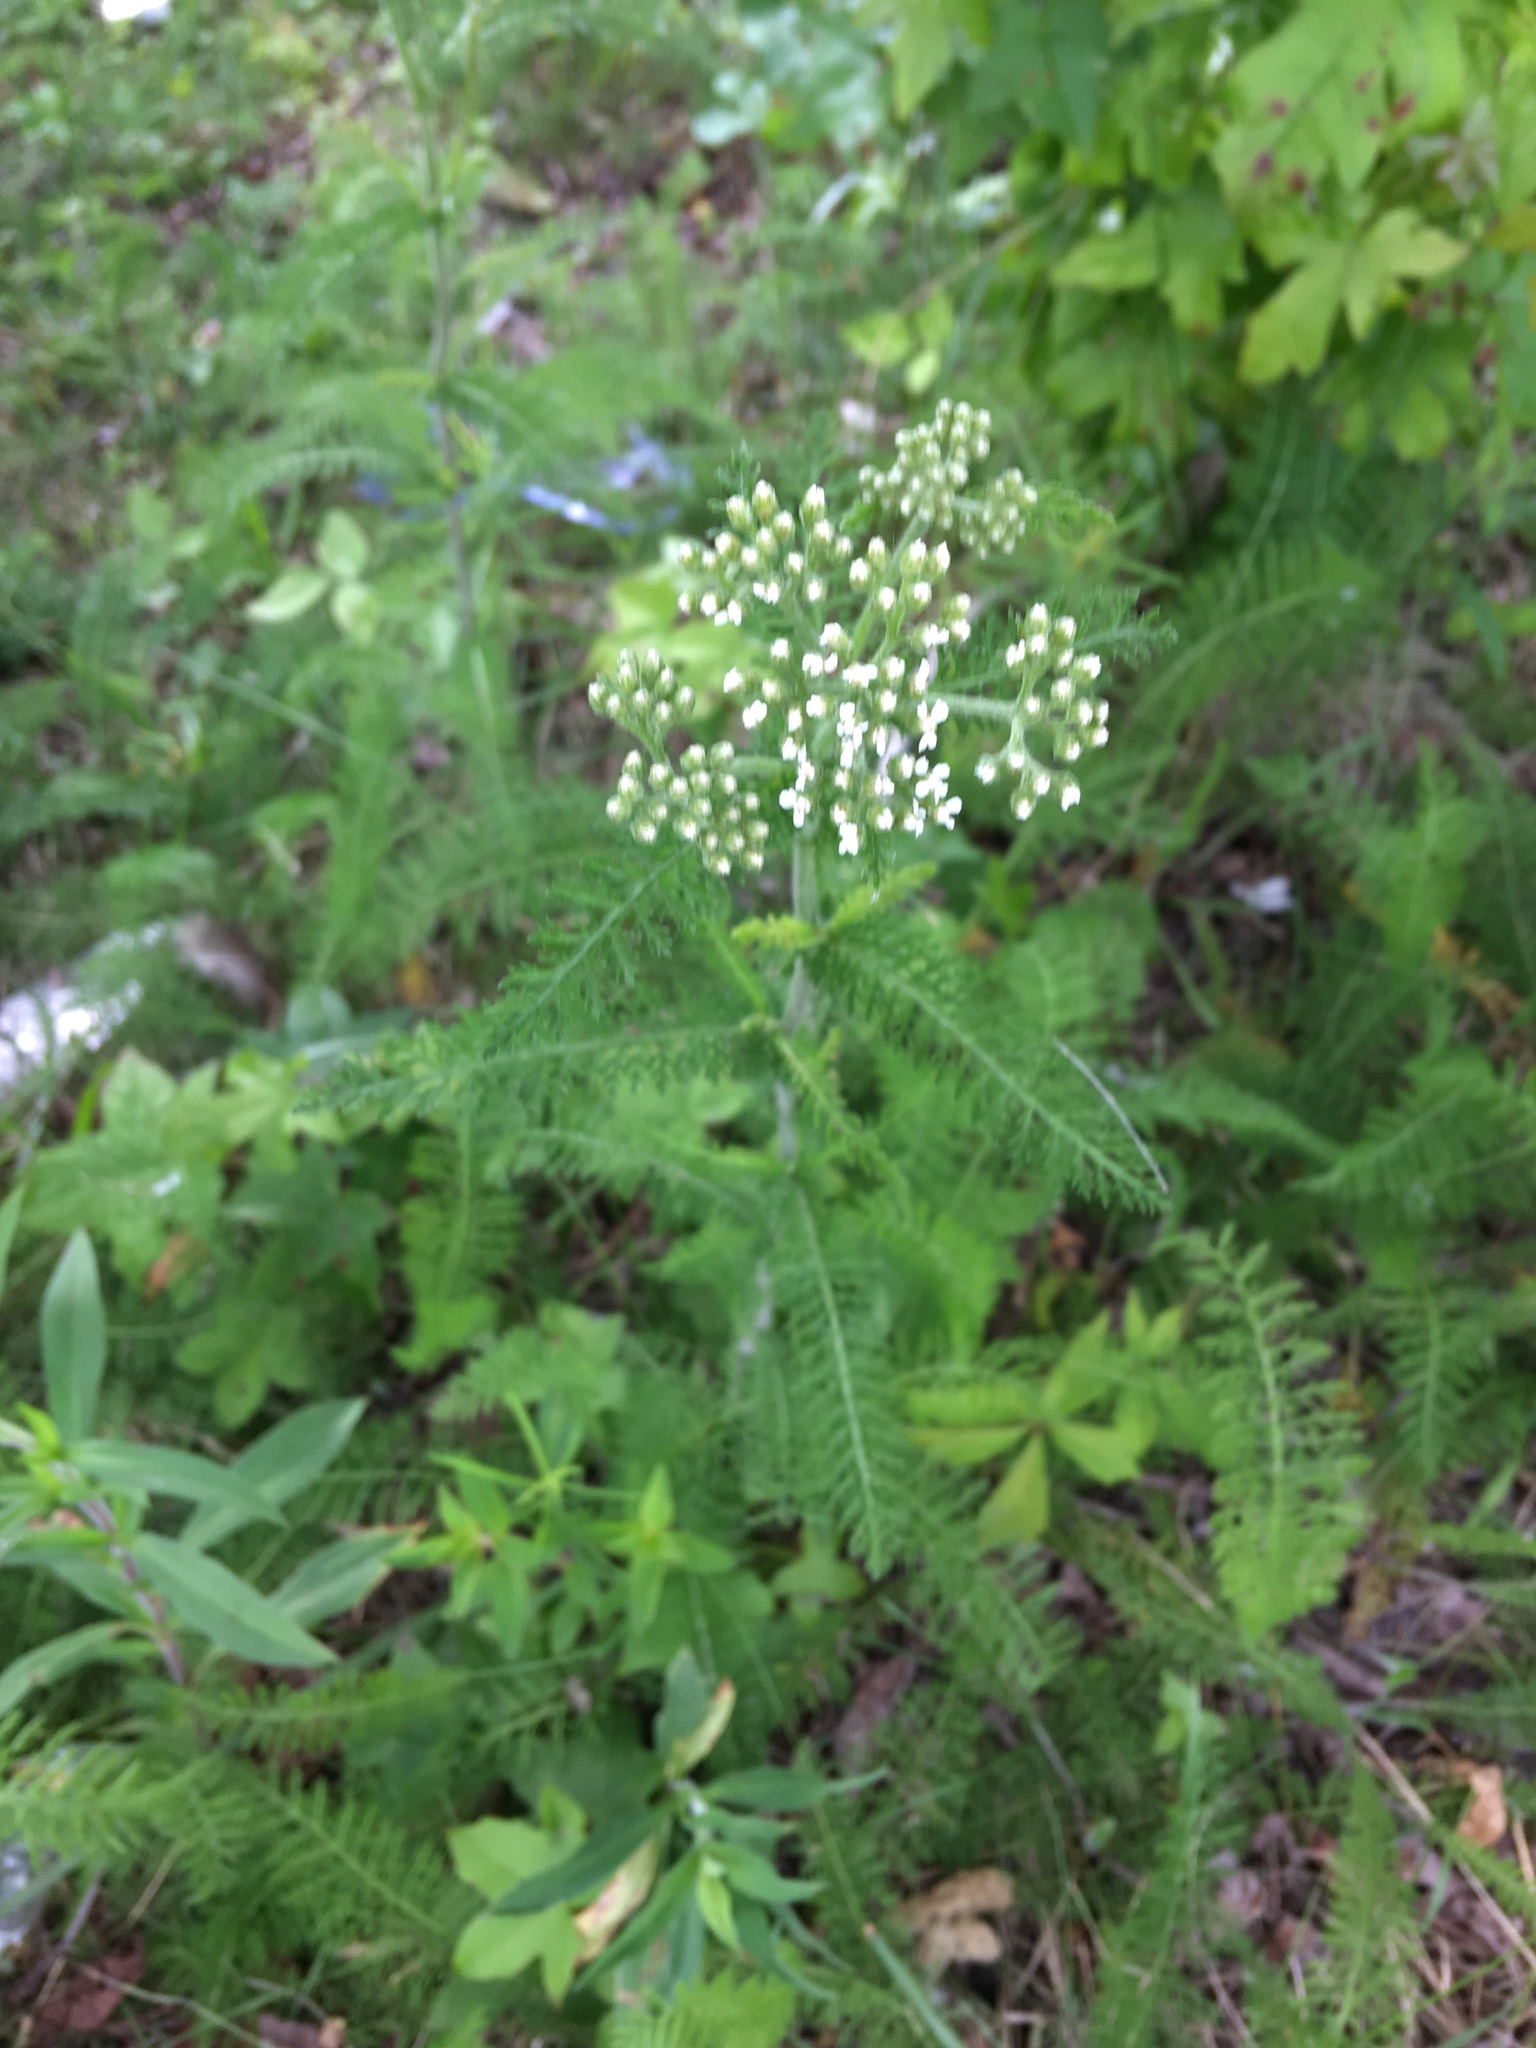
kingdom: Plantae
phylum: Tracheophyta
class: Magnoliopsida
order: Asterales
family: Asteraceae
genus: Achillea
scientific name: Achillea millefolium
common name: Yarrow
